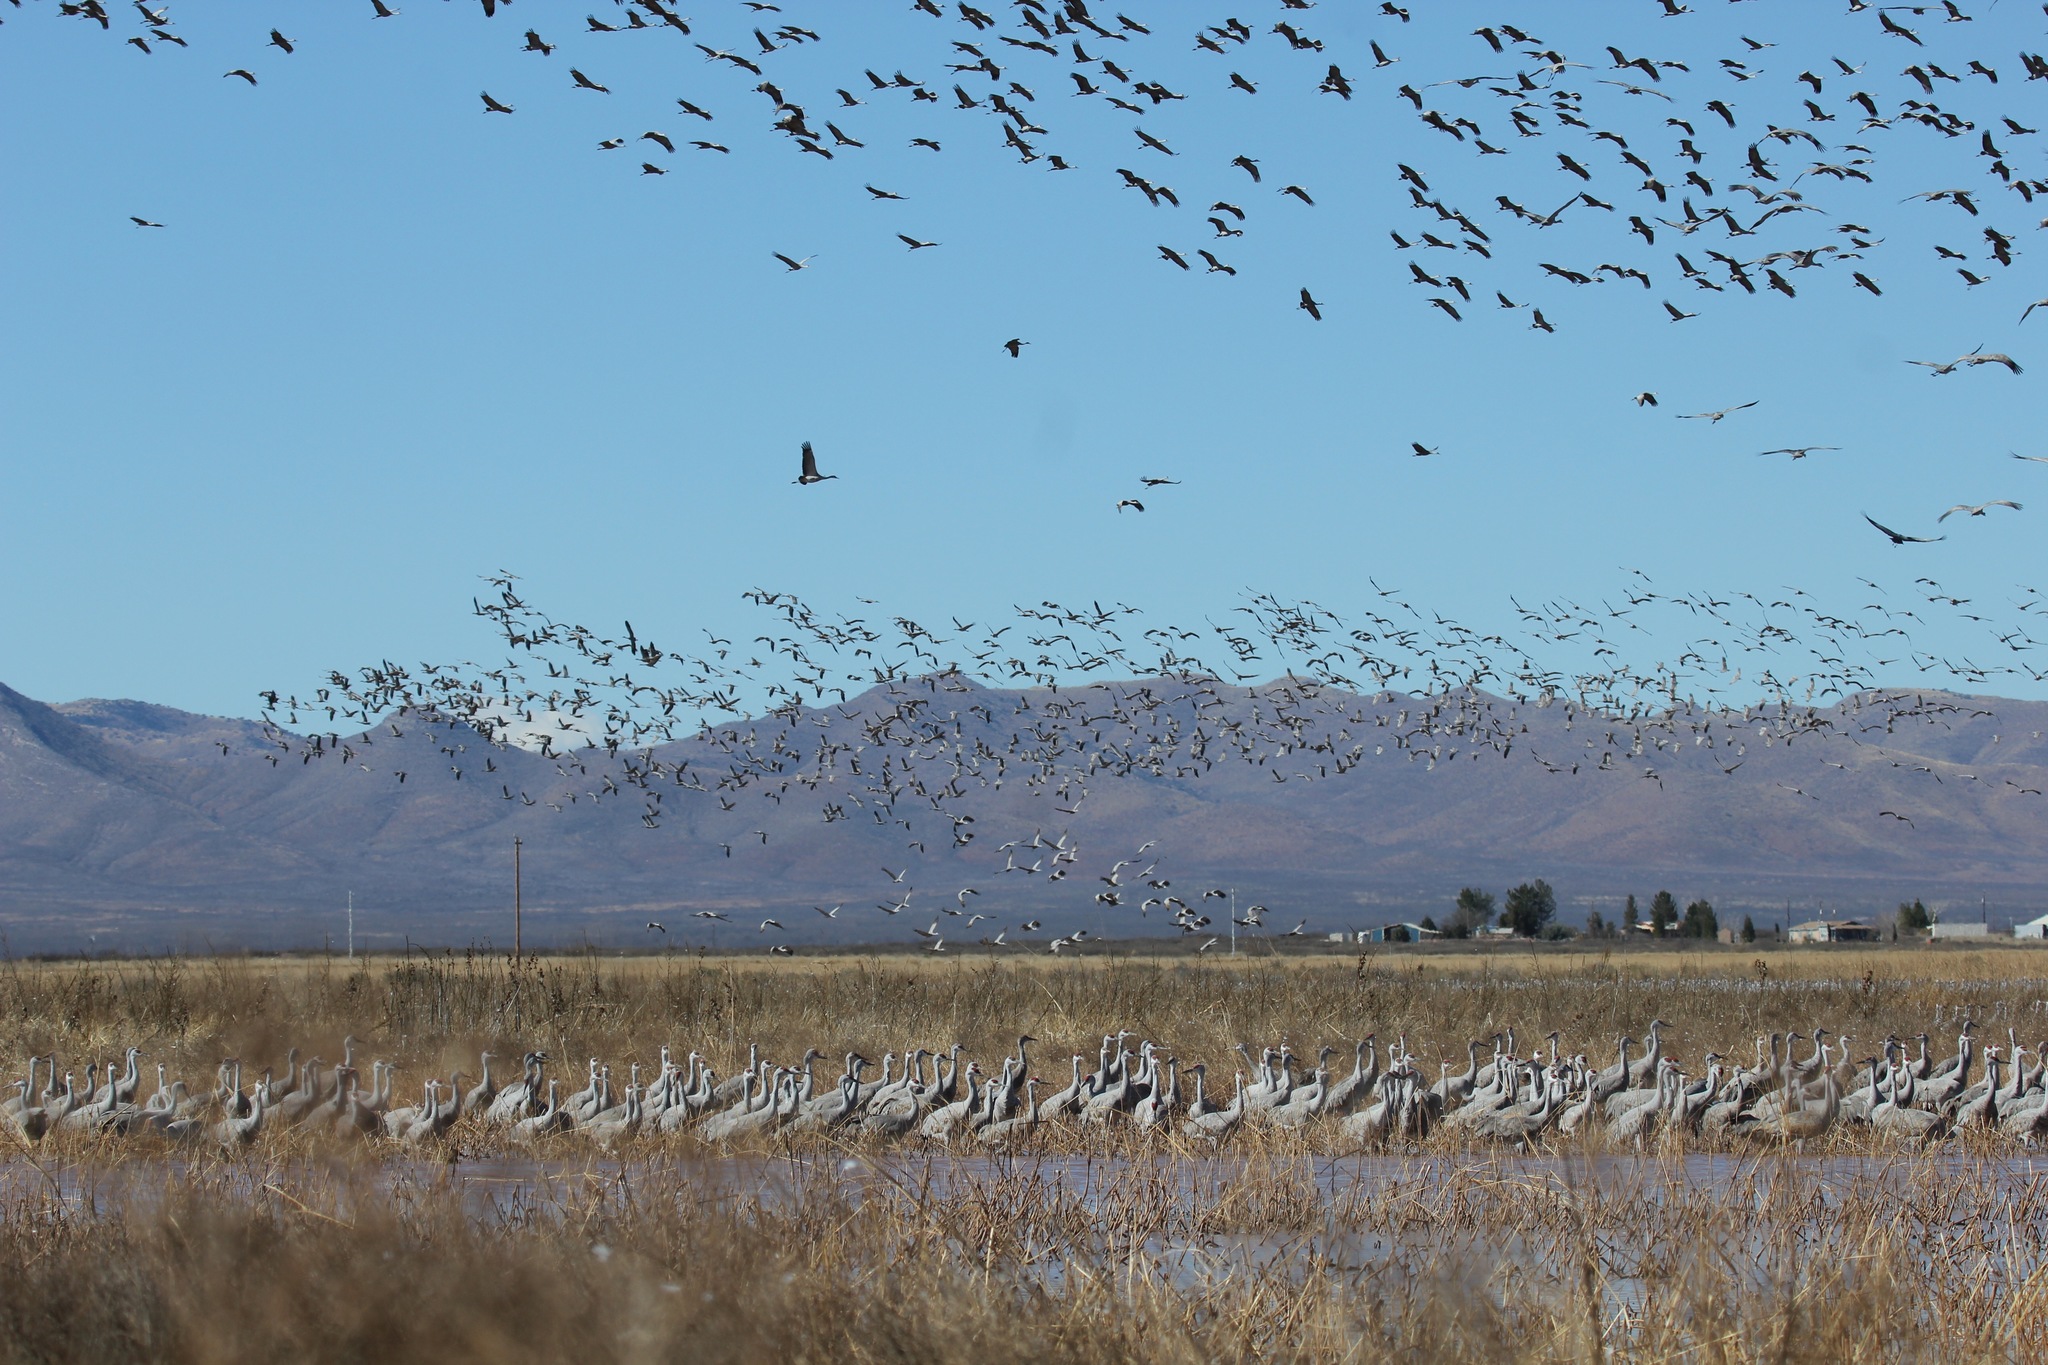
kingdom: Animalia
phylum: Chordata
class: Aves
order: Gruiformes
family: Gruidae
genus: Grus
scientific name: Grus canadensis
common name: Sandhill crane
